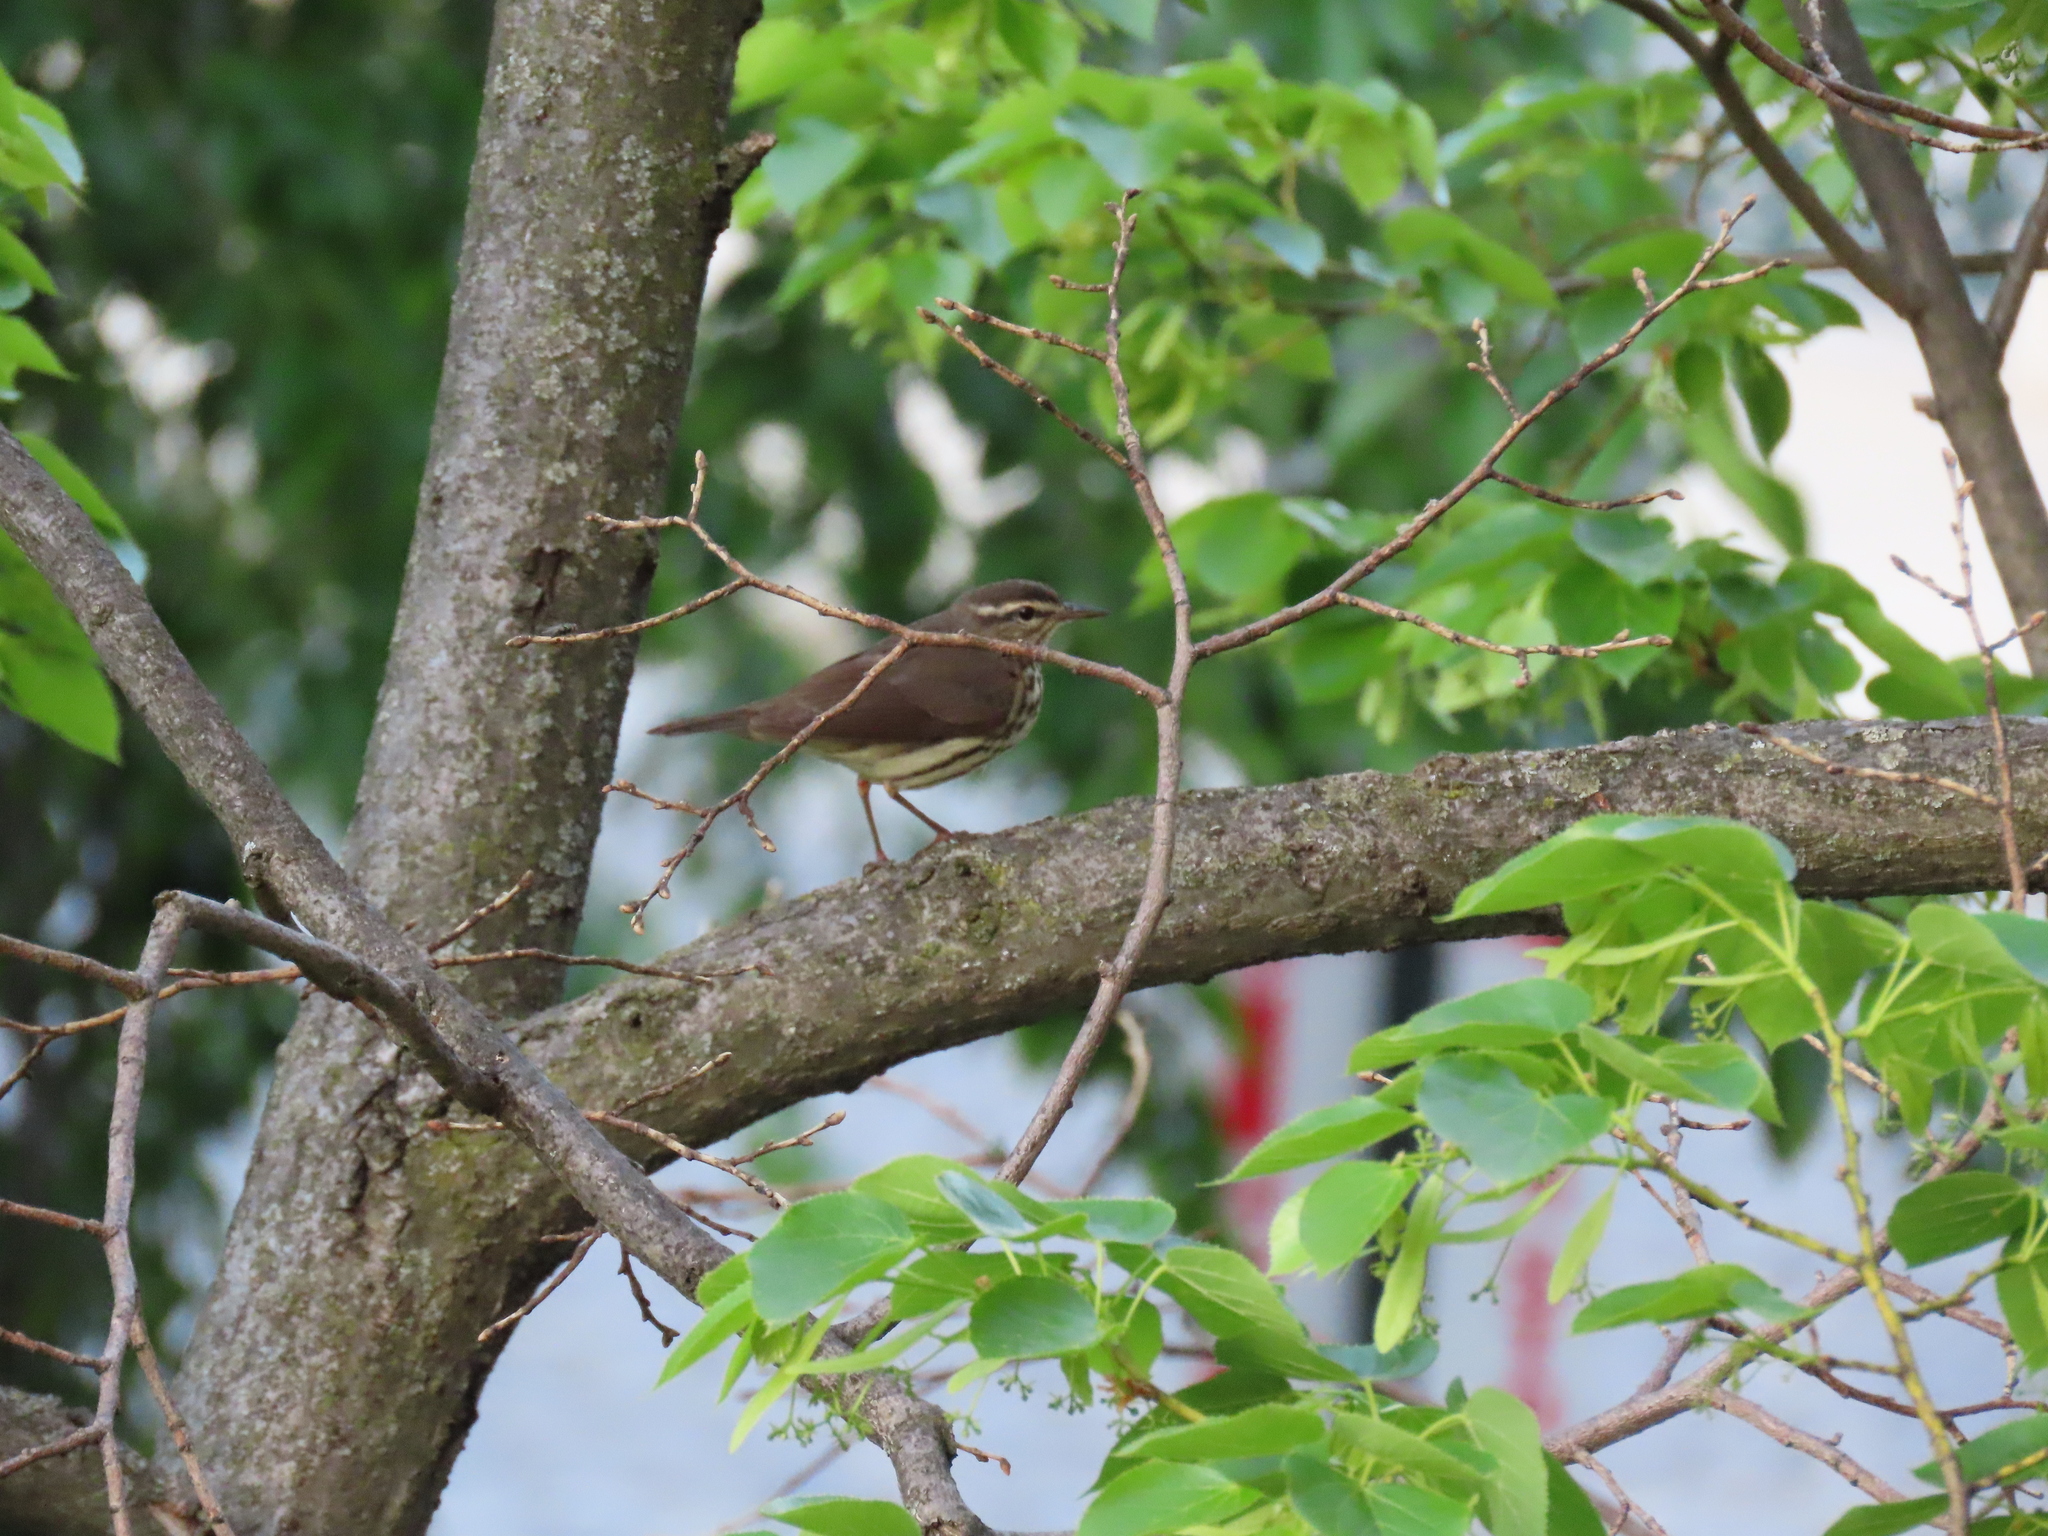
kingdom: Animalia
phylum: Chordata
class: Aves
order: Passeriformes
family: Parulidae
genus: Parkesia
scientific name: Parkesia noveboracensis
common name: Northern waterthrush
